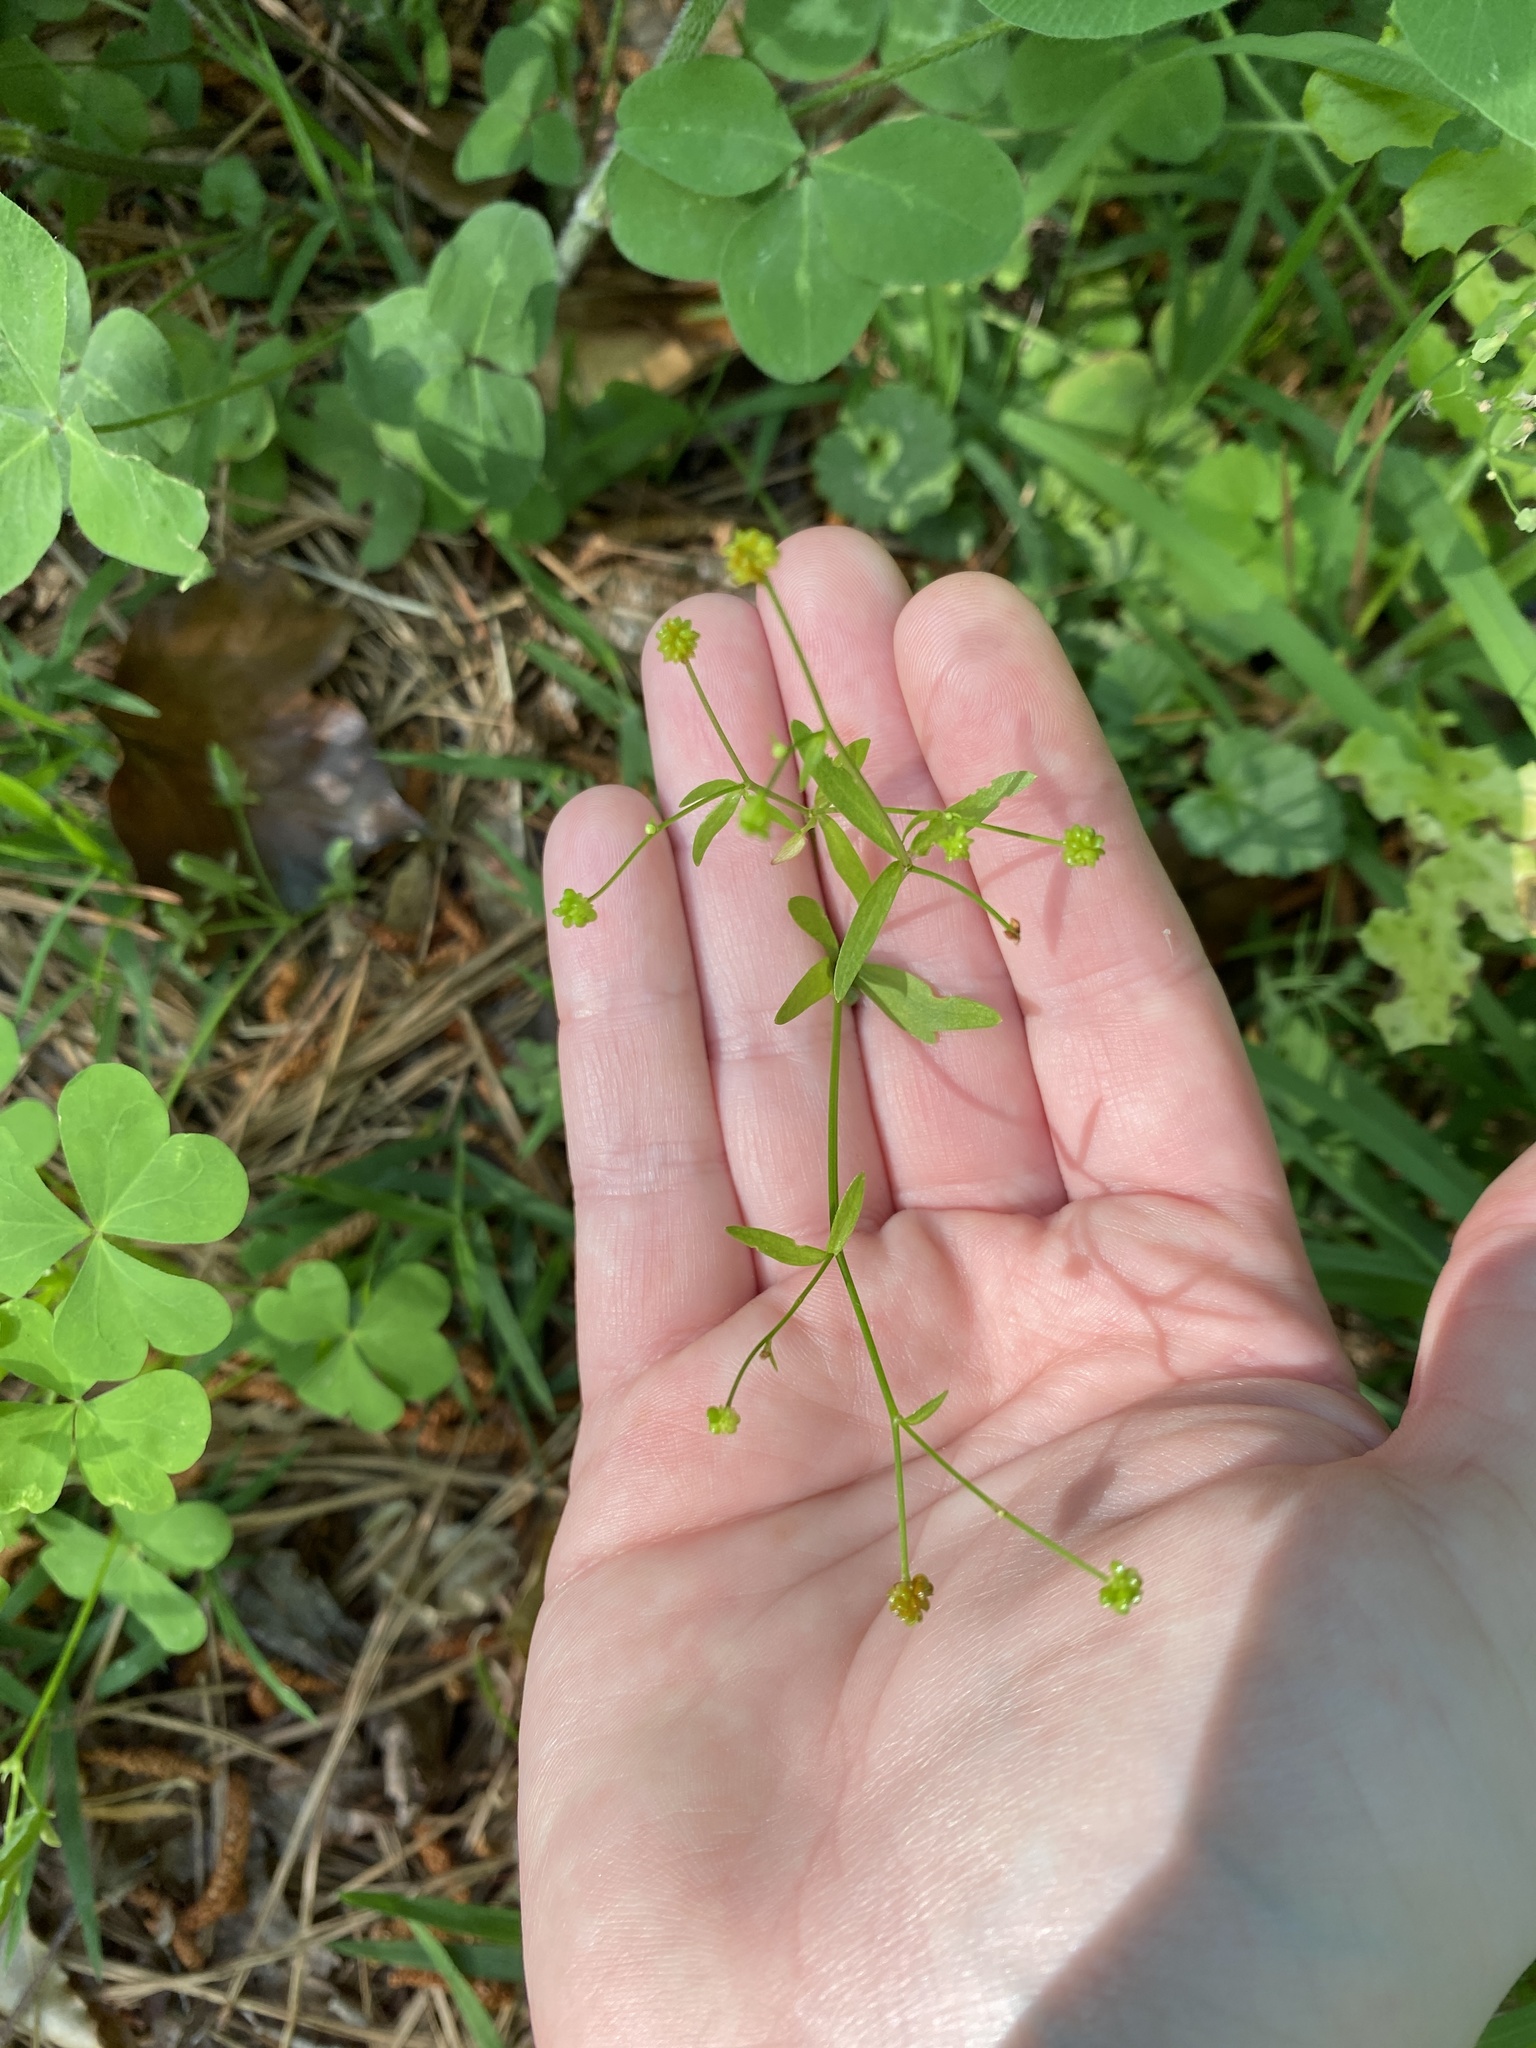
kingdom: Plantae
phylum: Tracheophyta
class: Magnoliopsida
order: Ranunculales
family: Ranunculaceae
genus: Ranunculus
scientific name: Ranunculus abortivus
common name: Early wood buttercup
